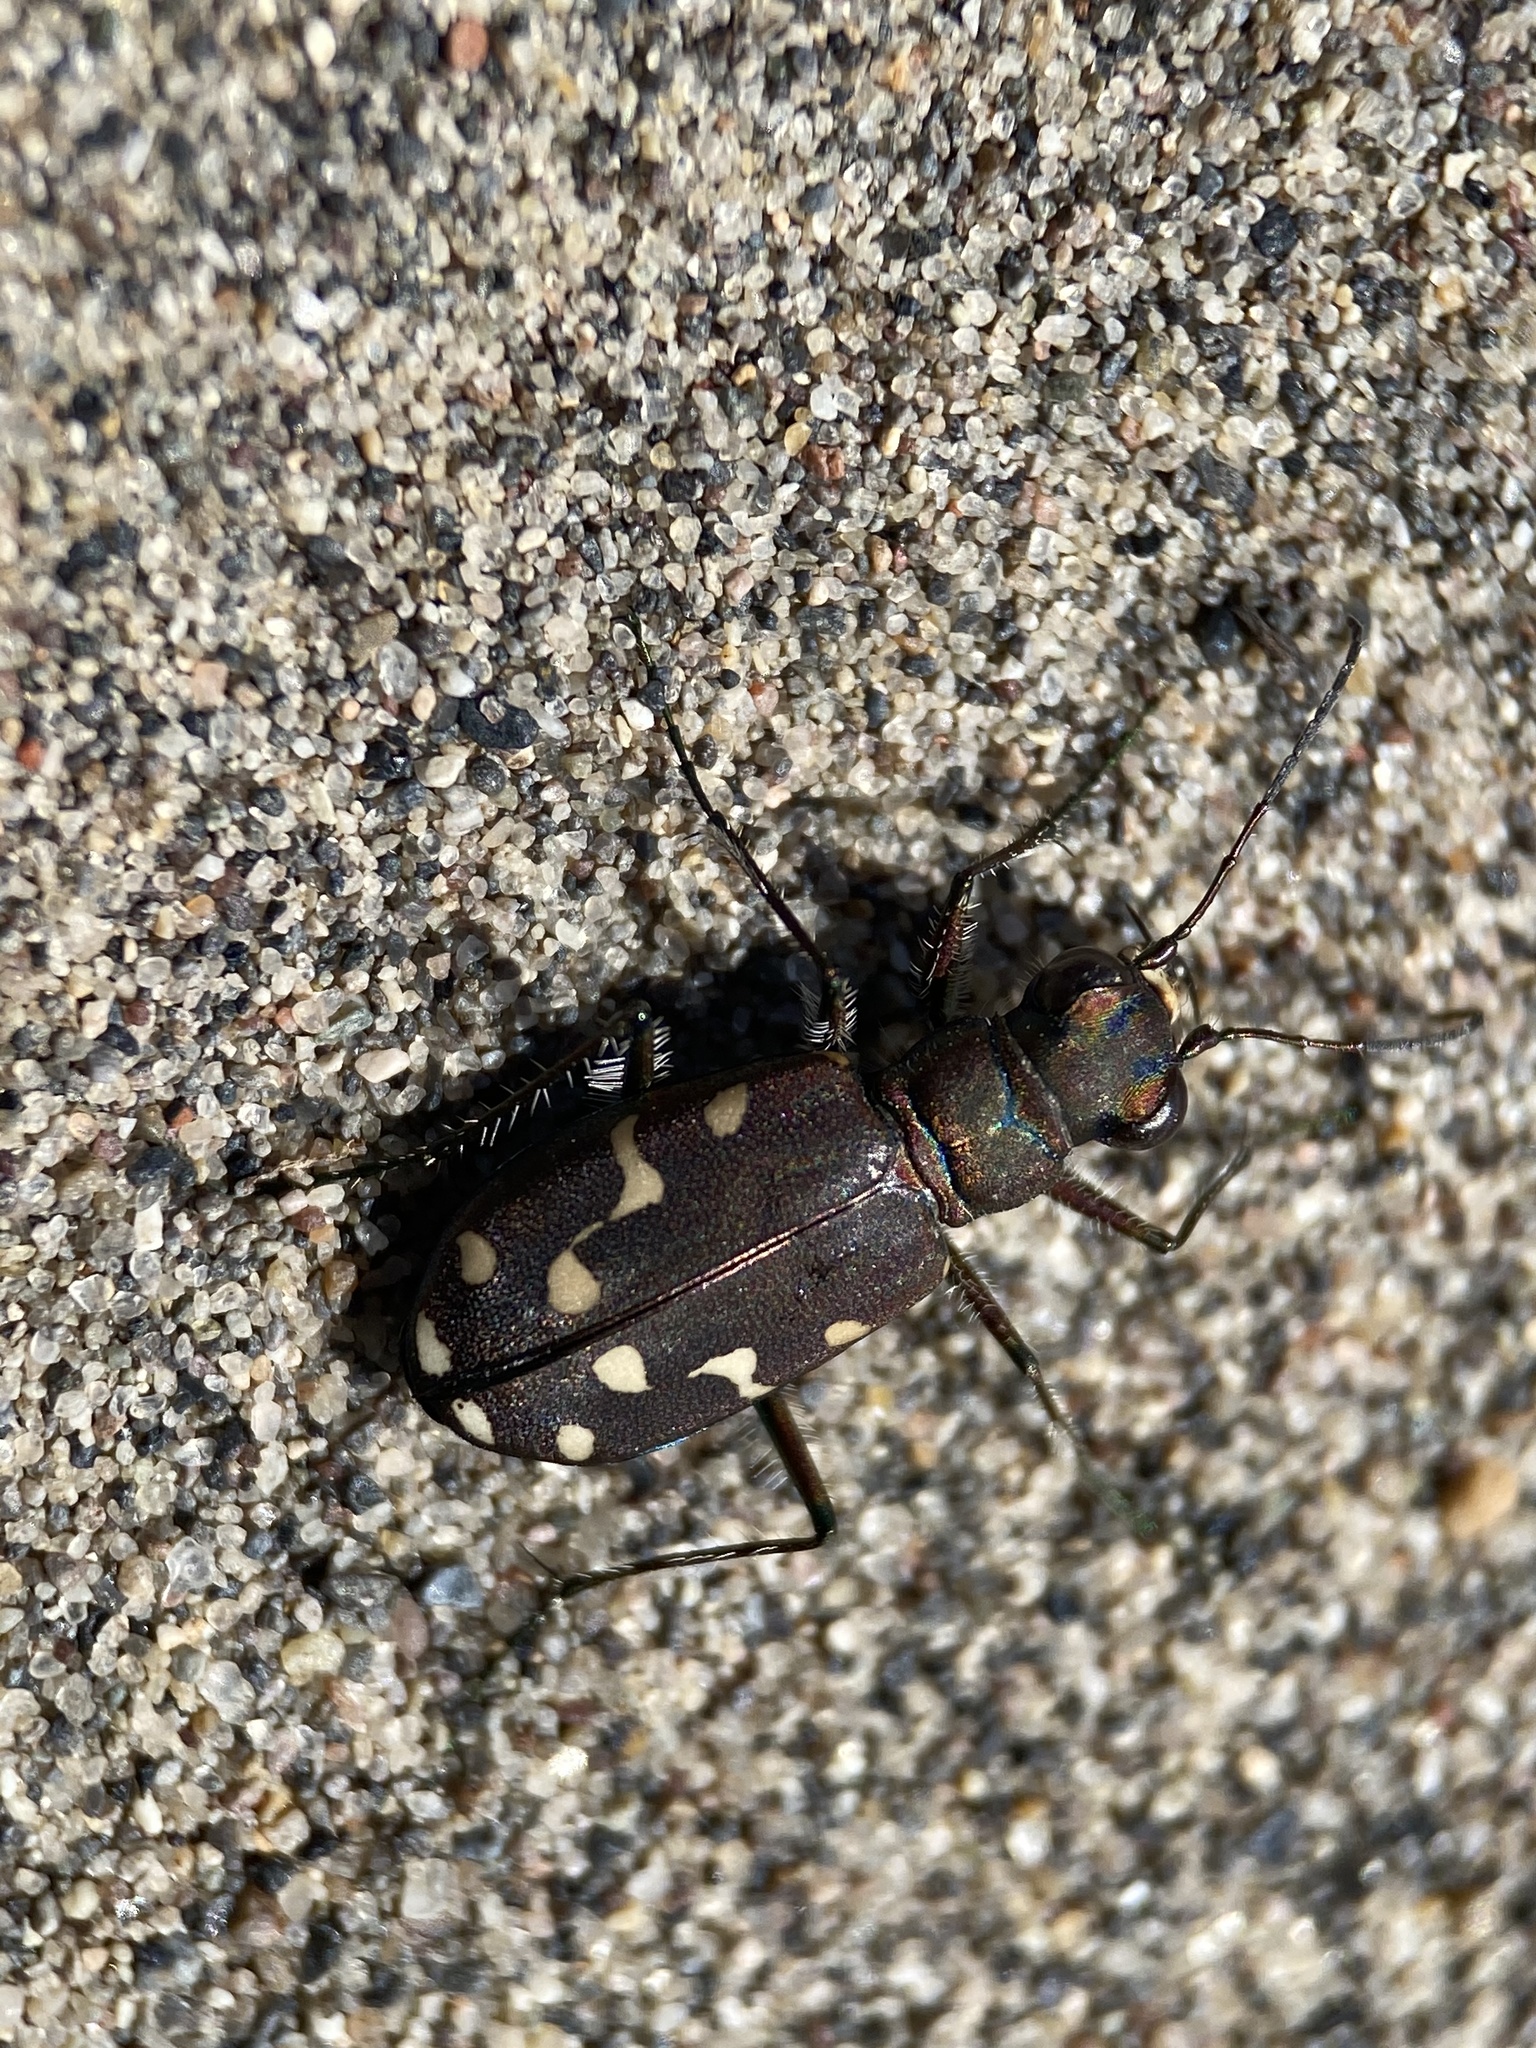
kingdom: Animalia
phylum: Arthropoda
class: Insecta
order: Coleoptera
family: Carabidae
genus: Cicindela
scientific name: Cicindela oregona
